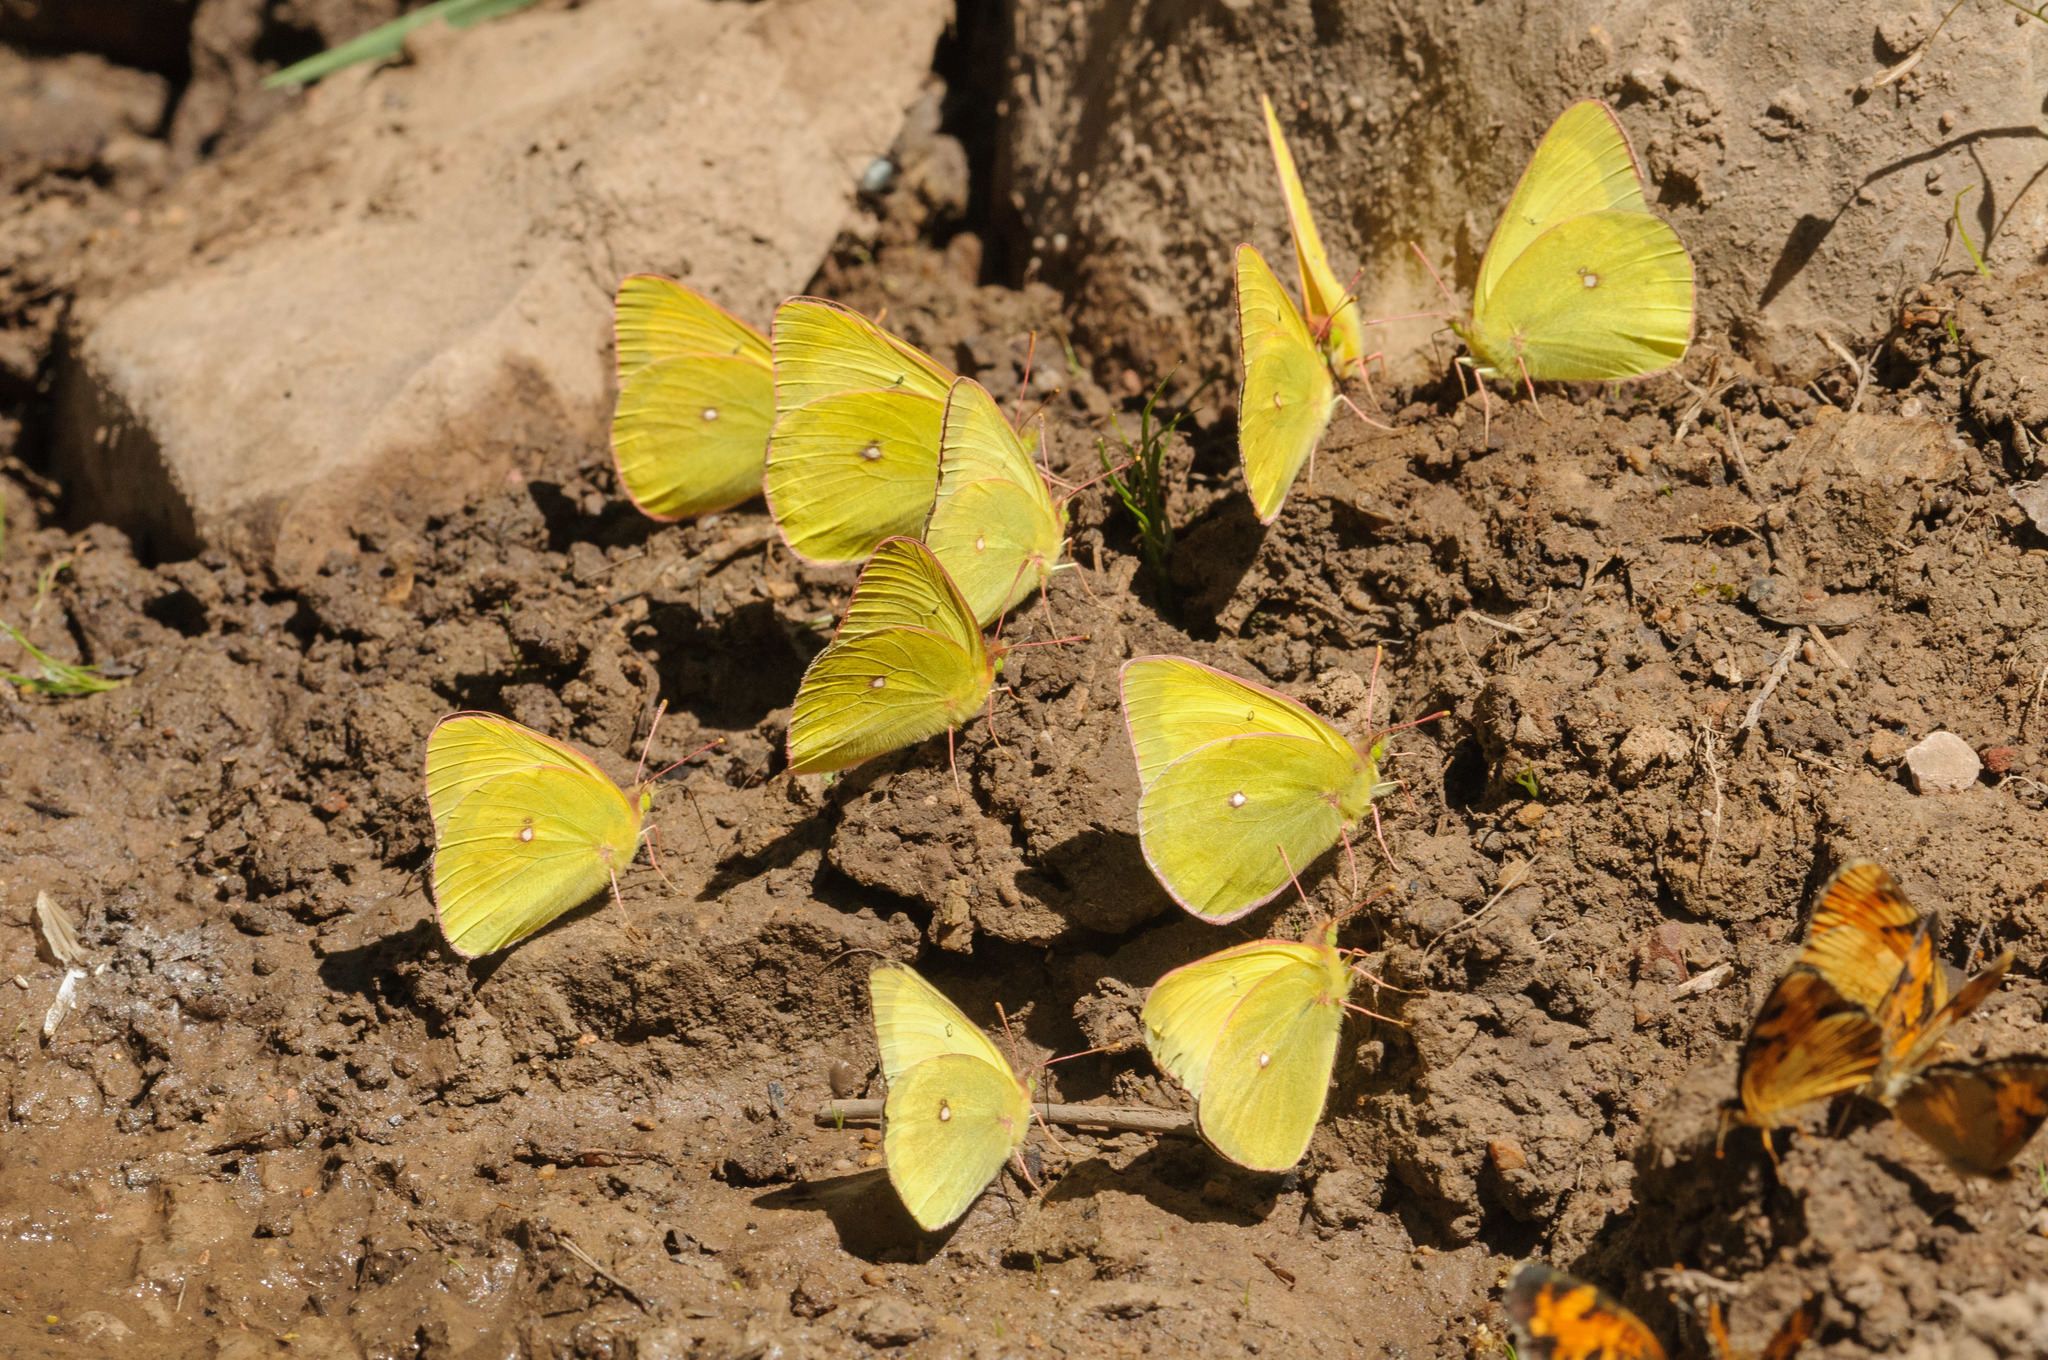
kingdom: Animalia
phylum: Arthropoda
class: Insecta
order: Lepidoptera
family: Pieridae
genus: Colias
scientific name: Colias occidentalis
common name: Western sulphur
